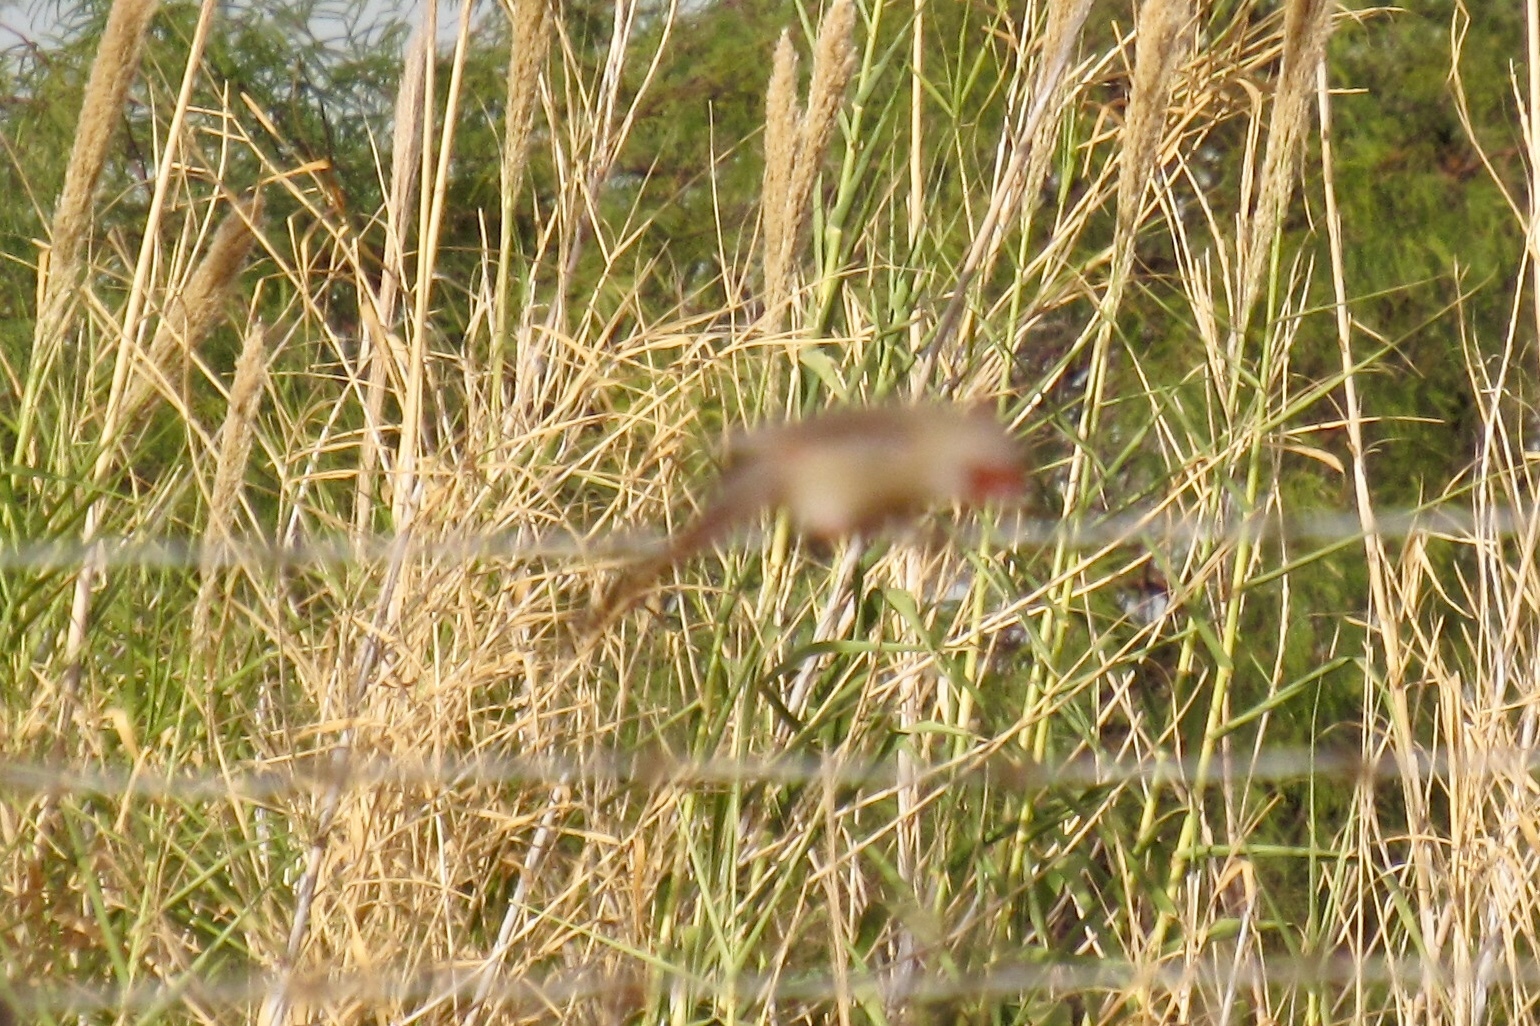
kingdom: Animalia
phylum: Chordata
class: Aves
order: Passeriformes
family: Cardinalidae
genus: Cardinalis
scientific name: Cardinalis sinuatus
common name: Pyrrhuloxia
